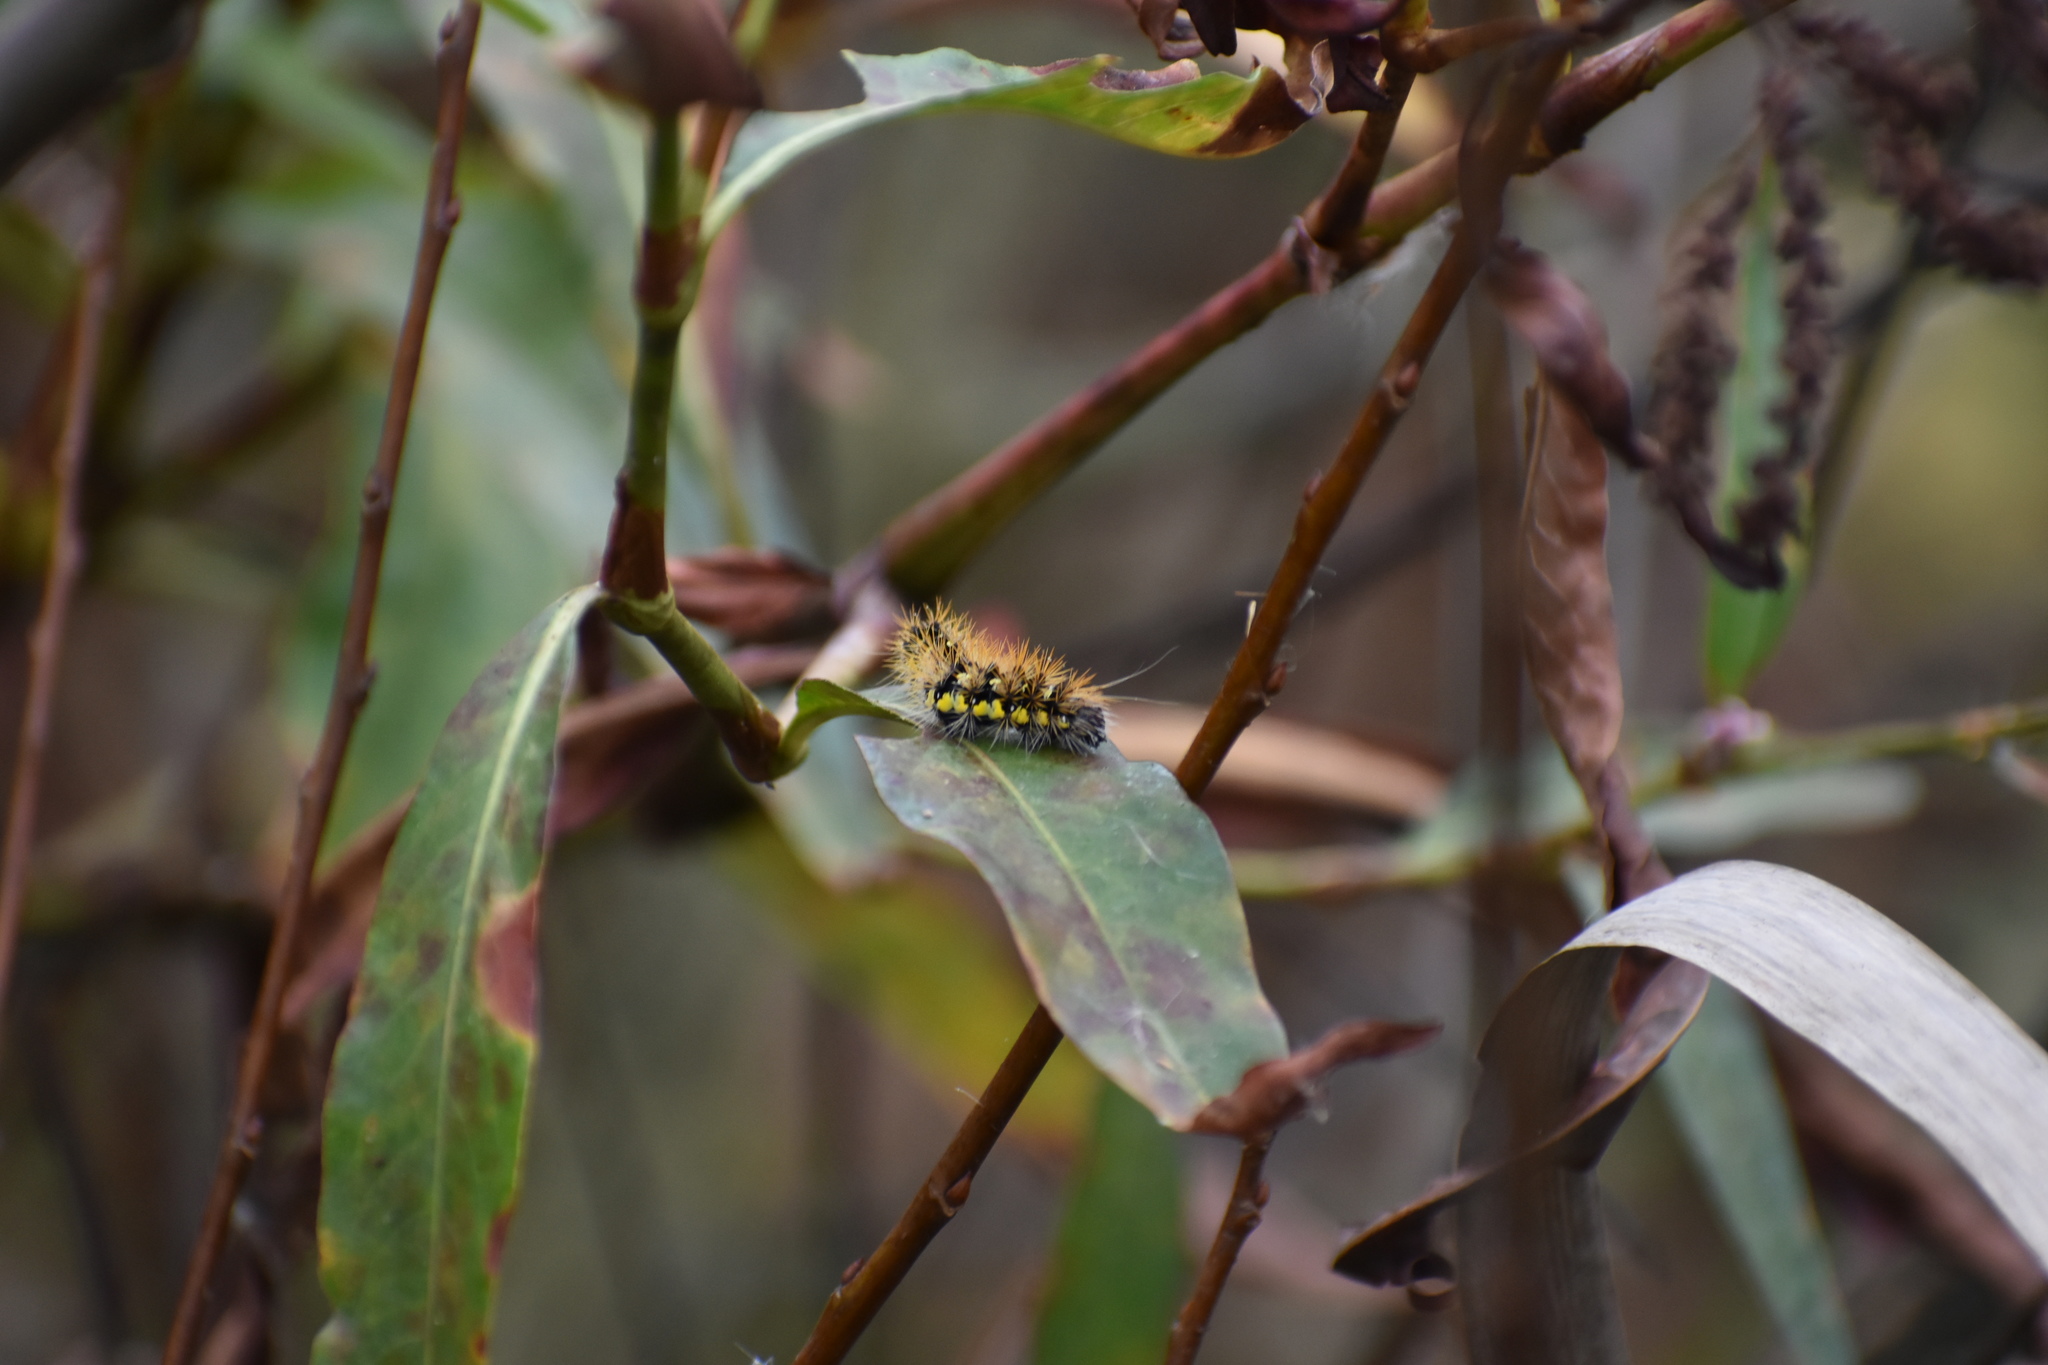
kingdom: Animalia
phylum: Arthropoda
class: Insecta
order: Lepidoptera
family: Noctuidae
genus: Acronicta
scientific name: Acronicta oblinita
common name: Smeared dagger
